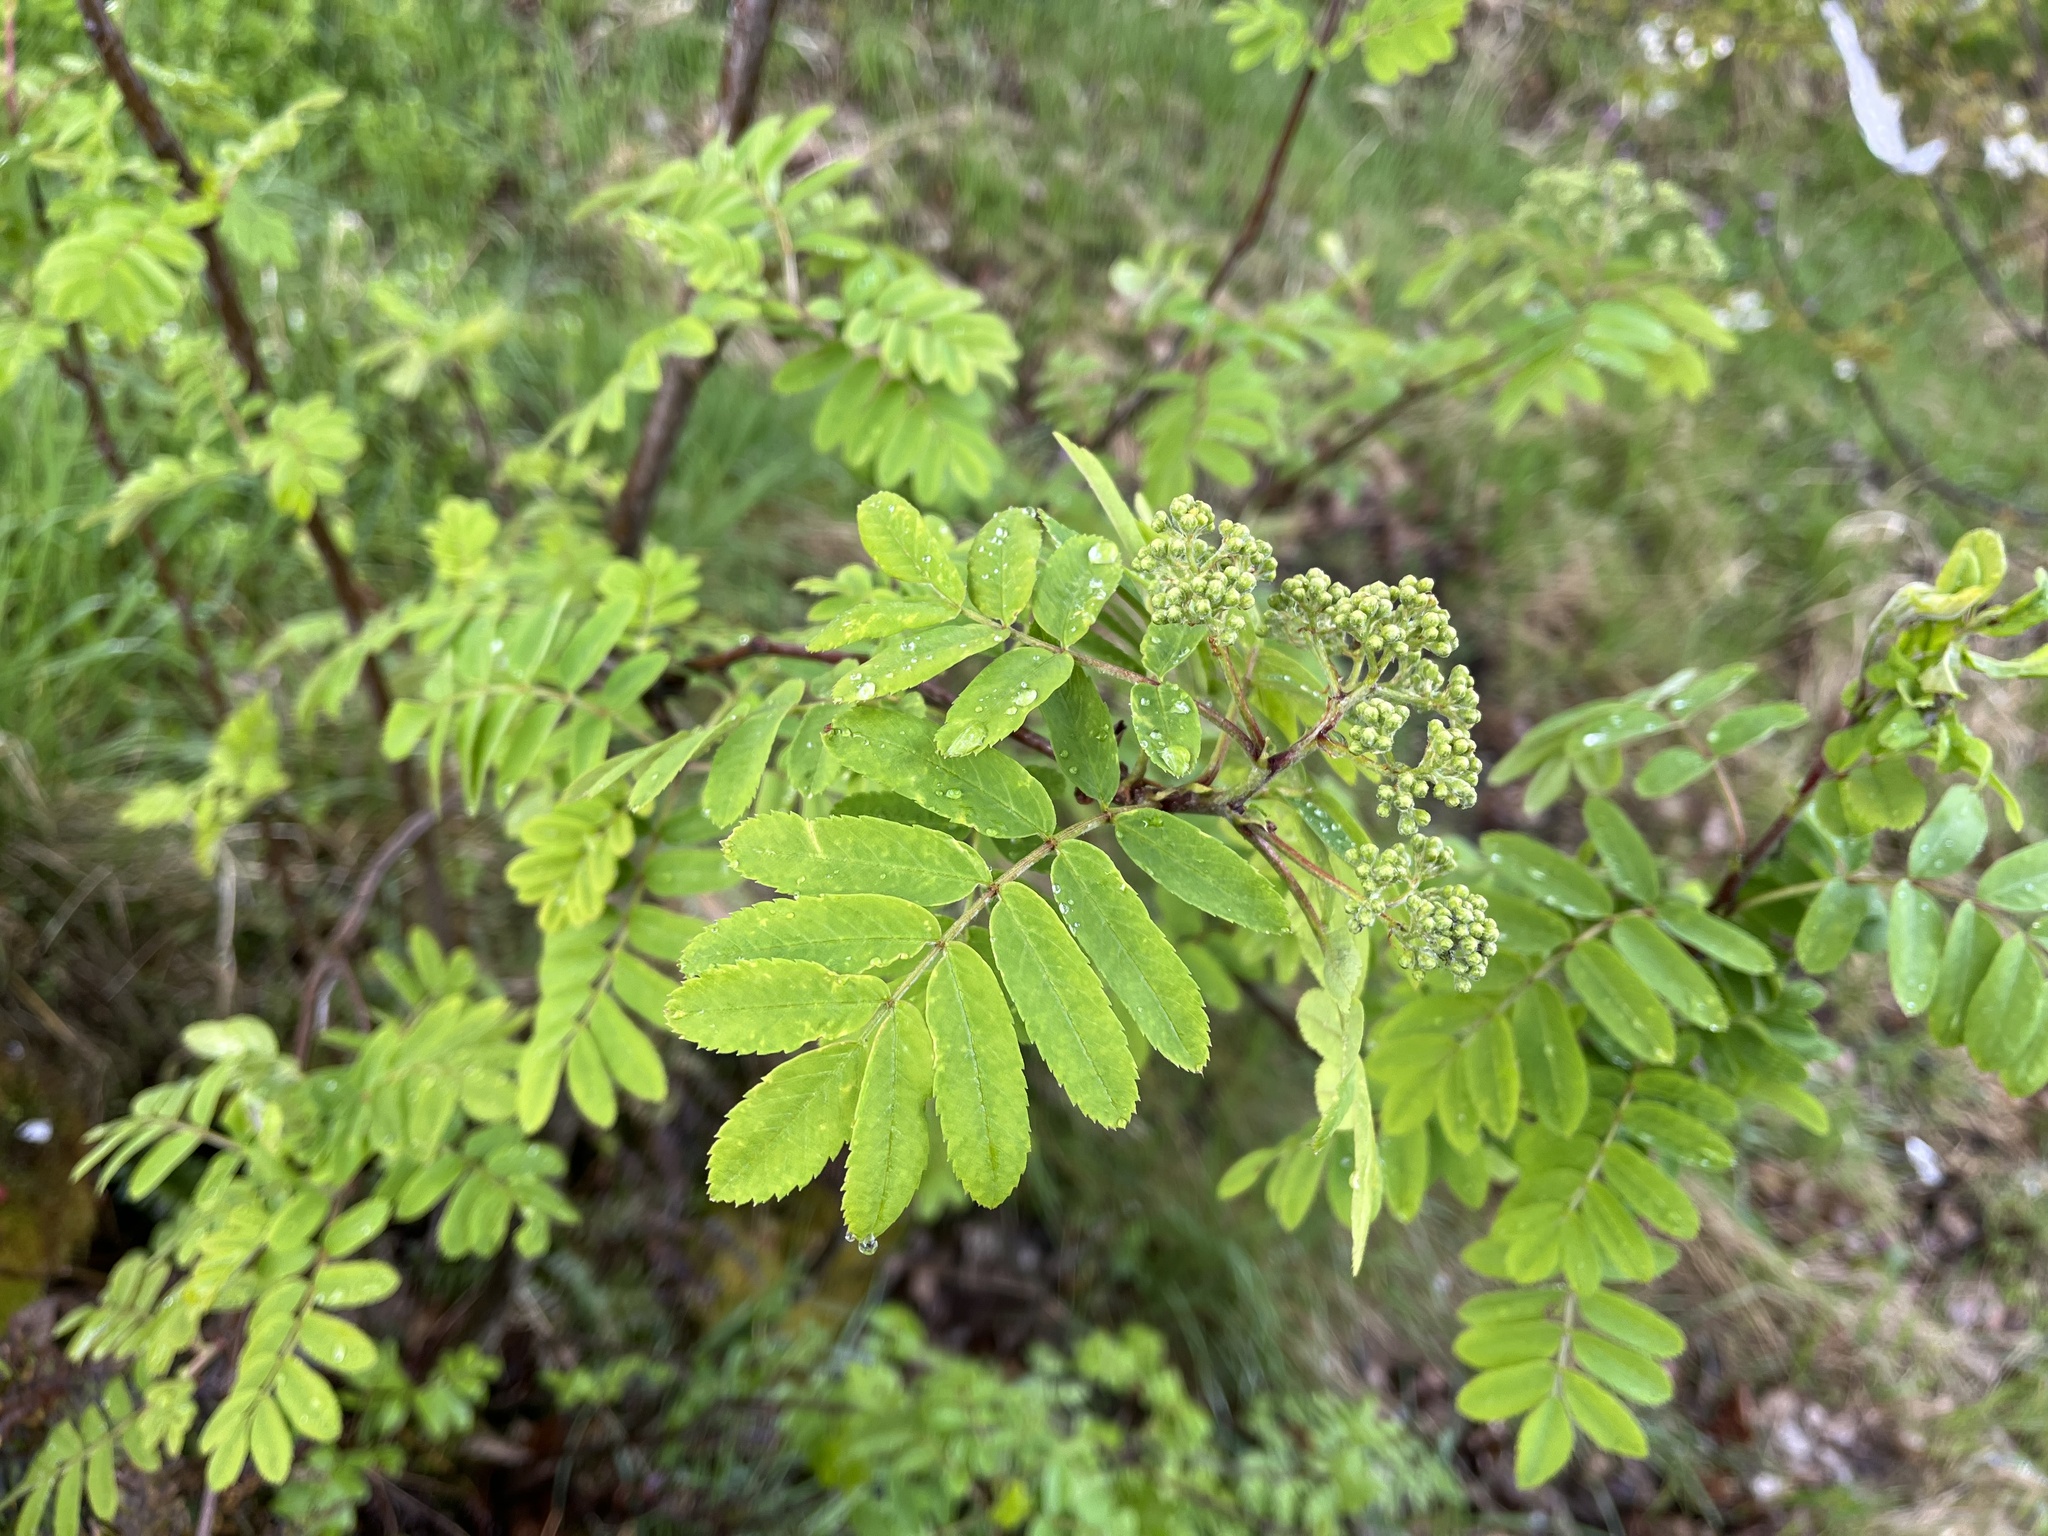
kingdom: Plantae
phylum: Tracheophyta
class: Magnoliopsida
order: Rosales
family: Rosaceae
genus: Sorbus
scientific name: Sorbus aucuparia
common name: Rowan
